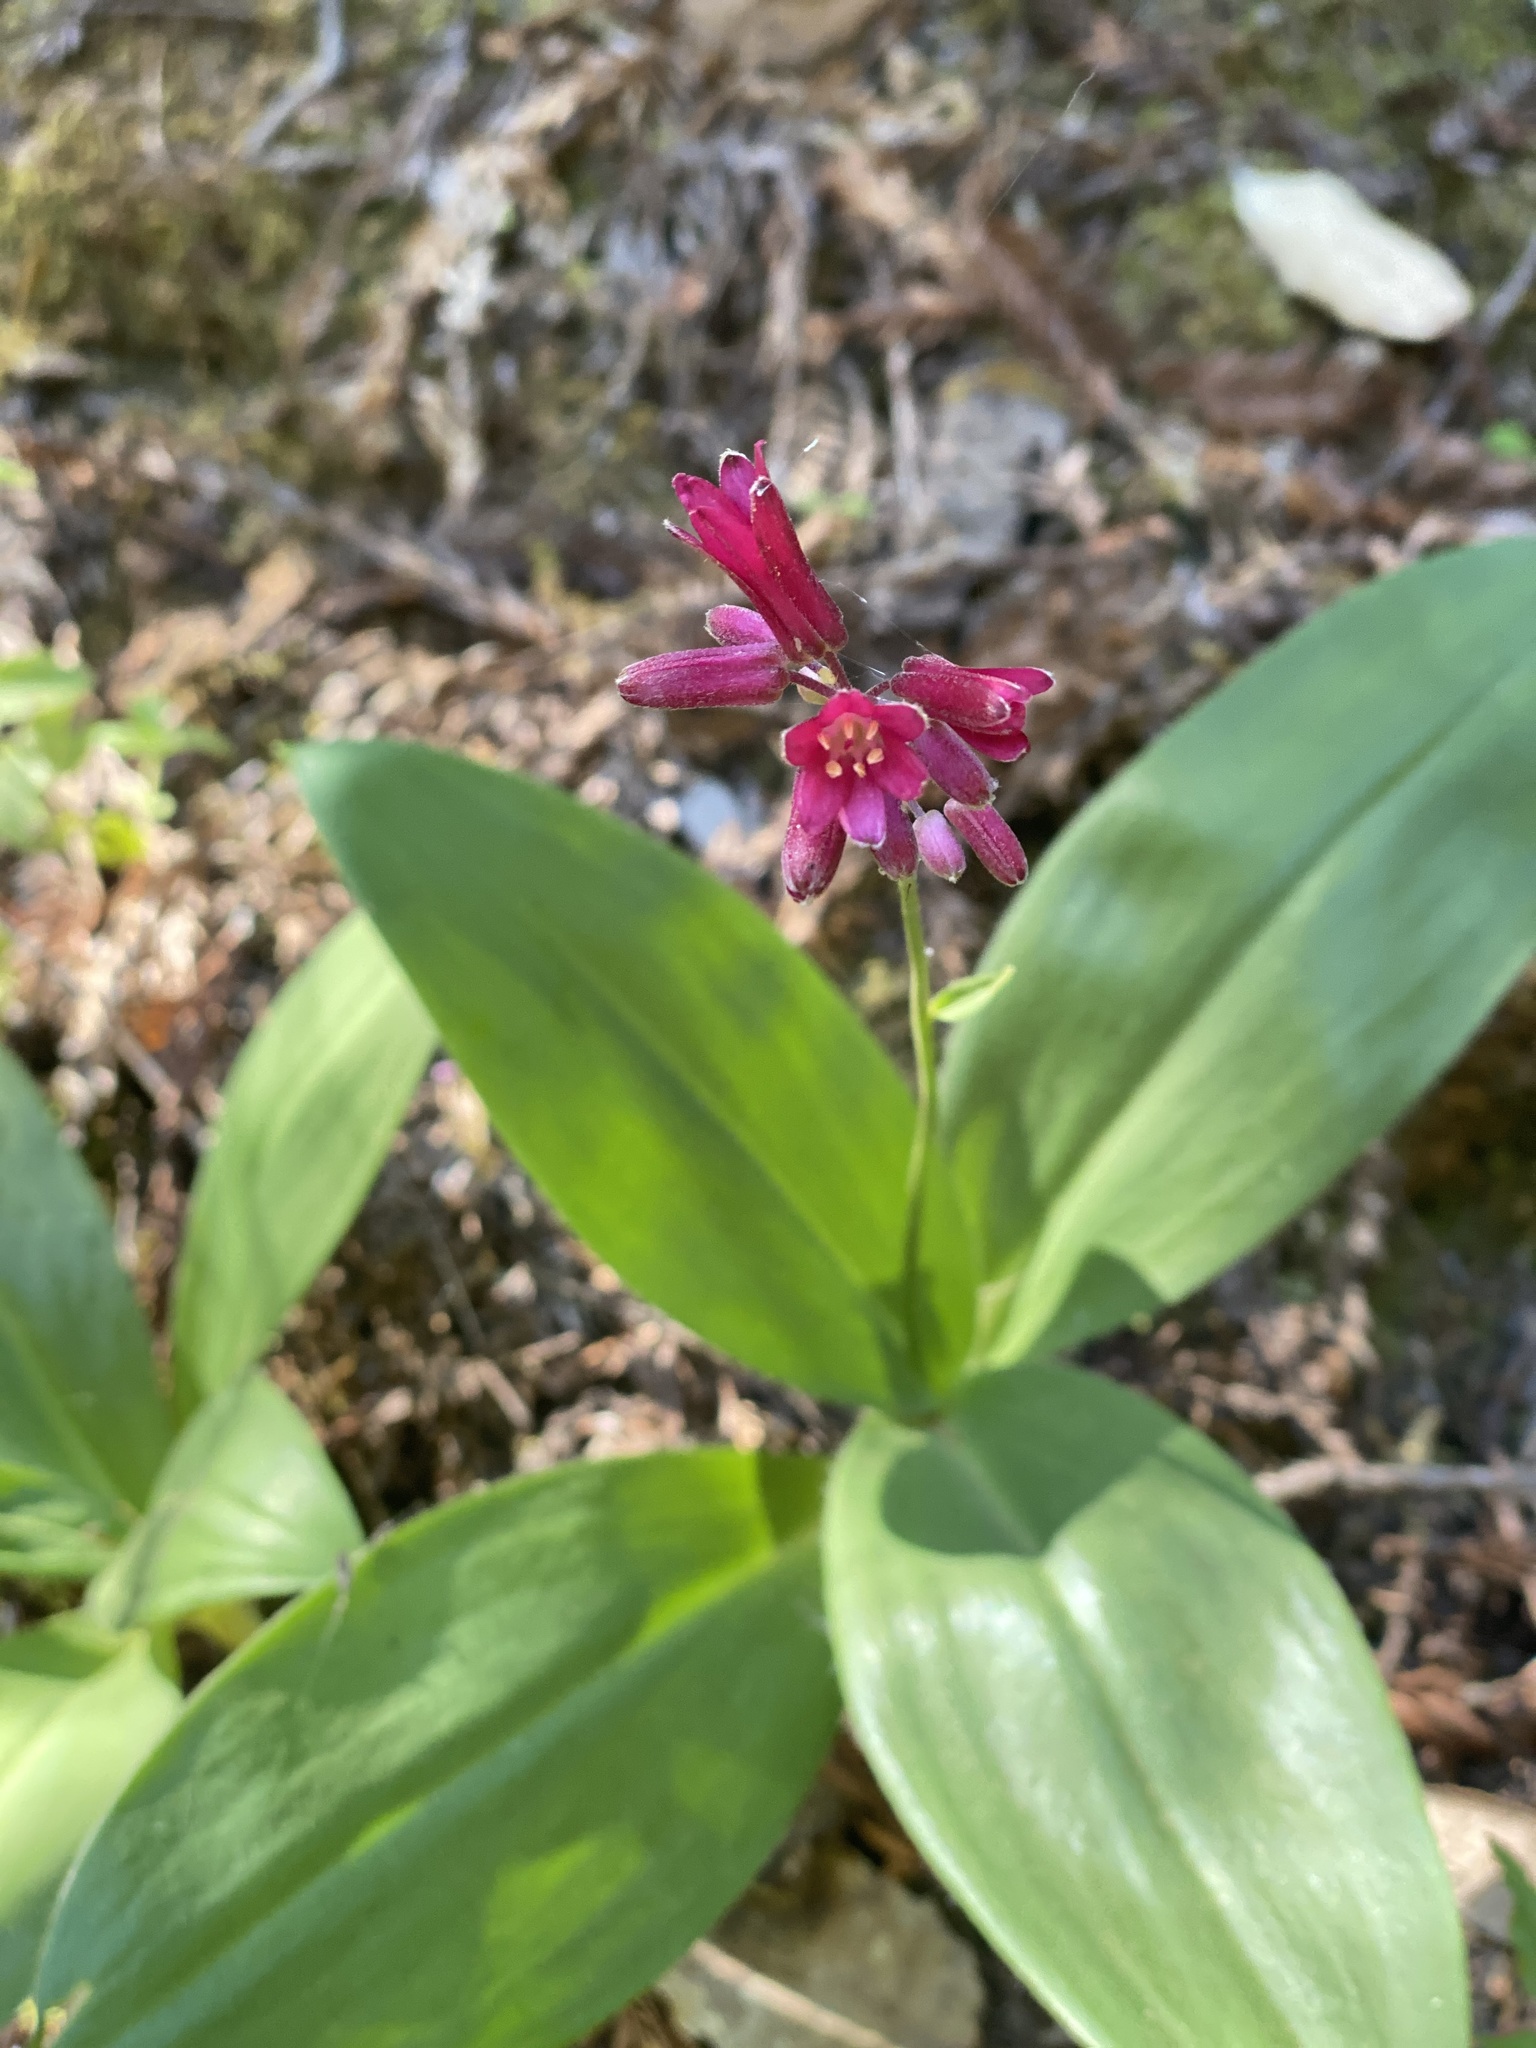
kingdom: Plantae
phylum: Tracheophyta
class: Liliopsida
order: Liliales
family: Liliaceae
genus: Clintonia
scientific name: Clintonia andrewsiana
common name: Red clintonia
